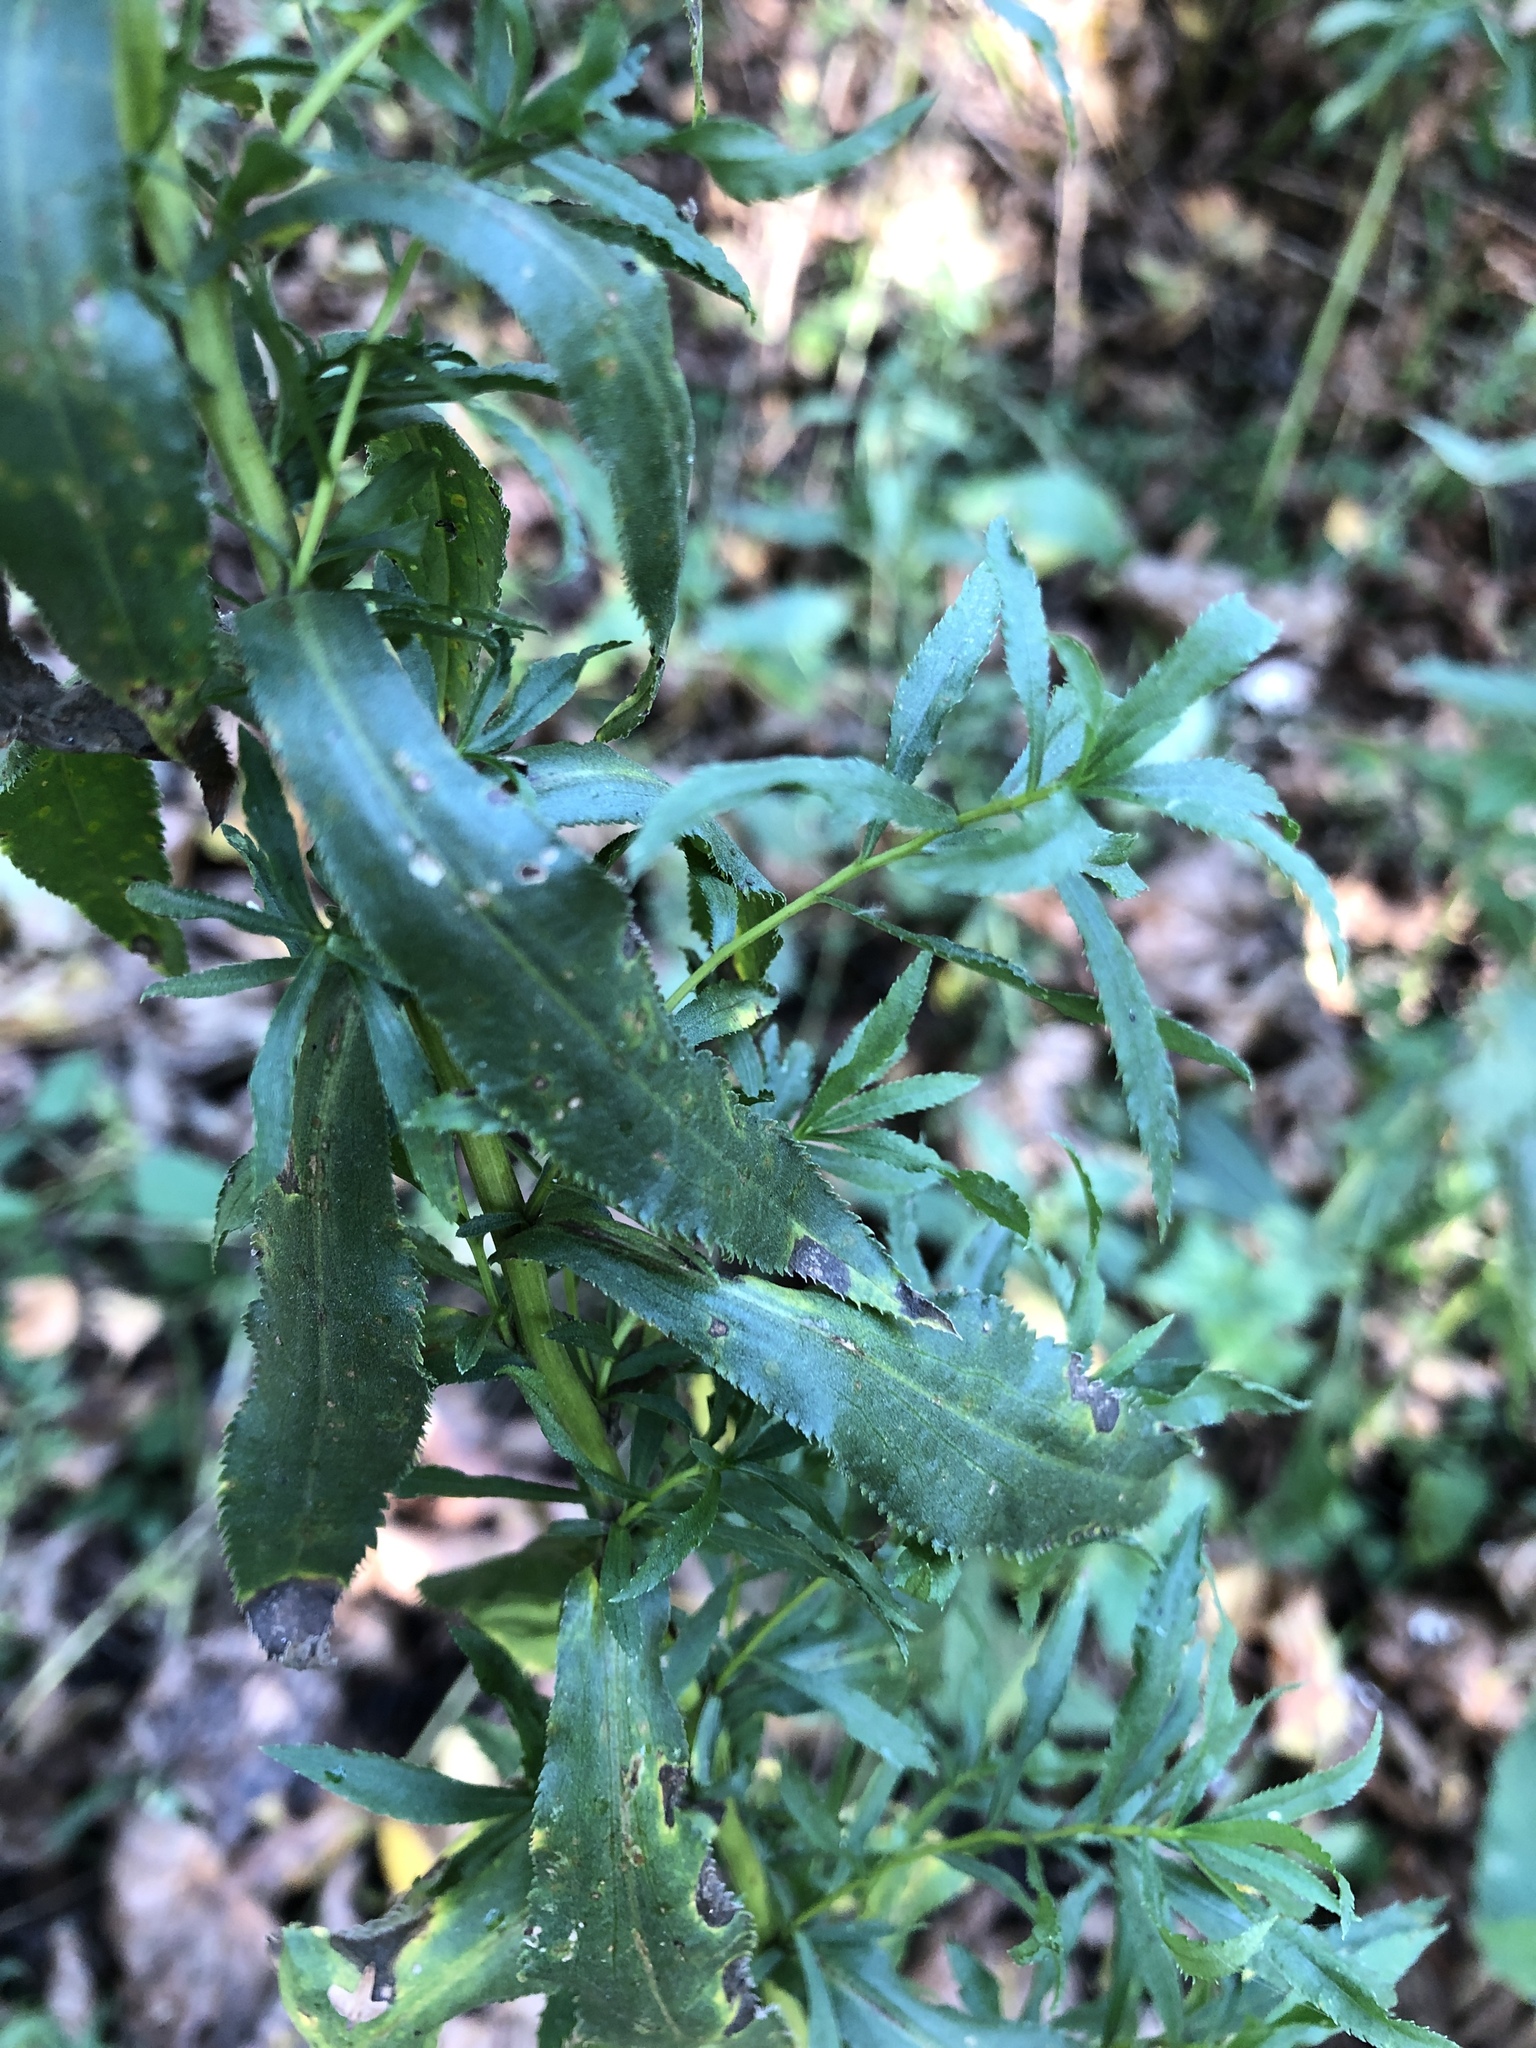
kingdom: Plantae
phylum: Tracheophyta
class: Magnoliopsida
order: Asterales
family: Asteraceae
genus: Achillea
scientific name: Achillea salicifolia
